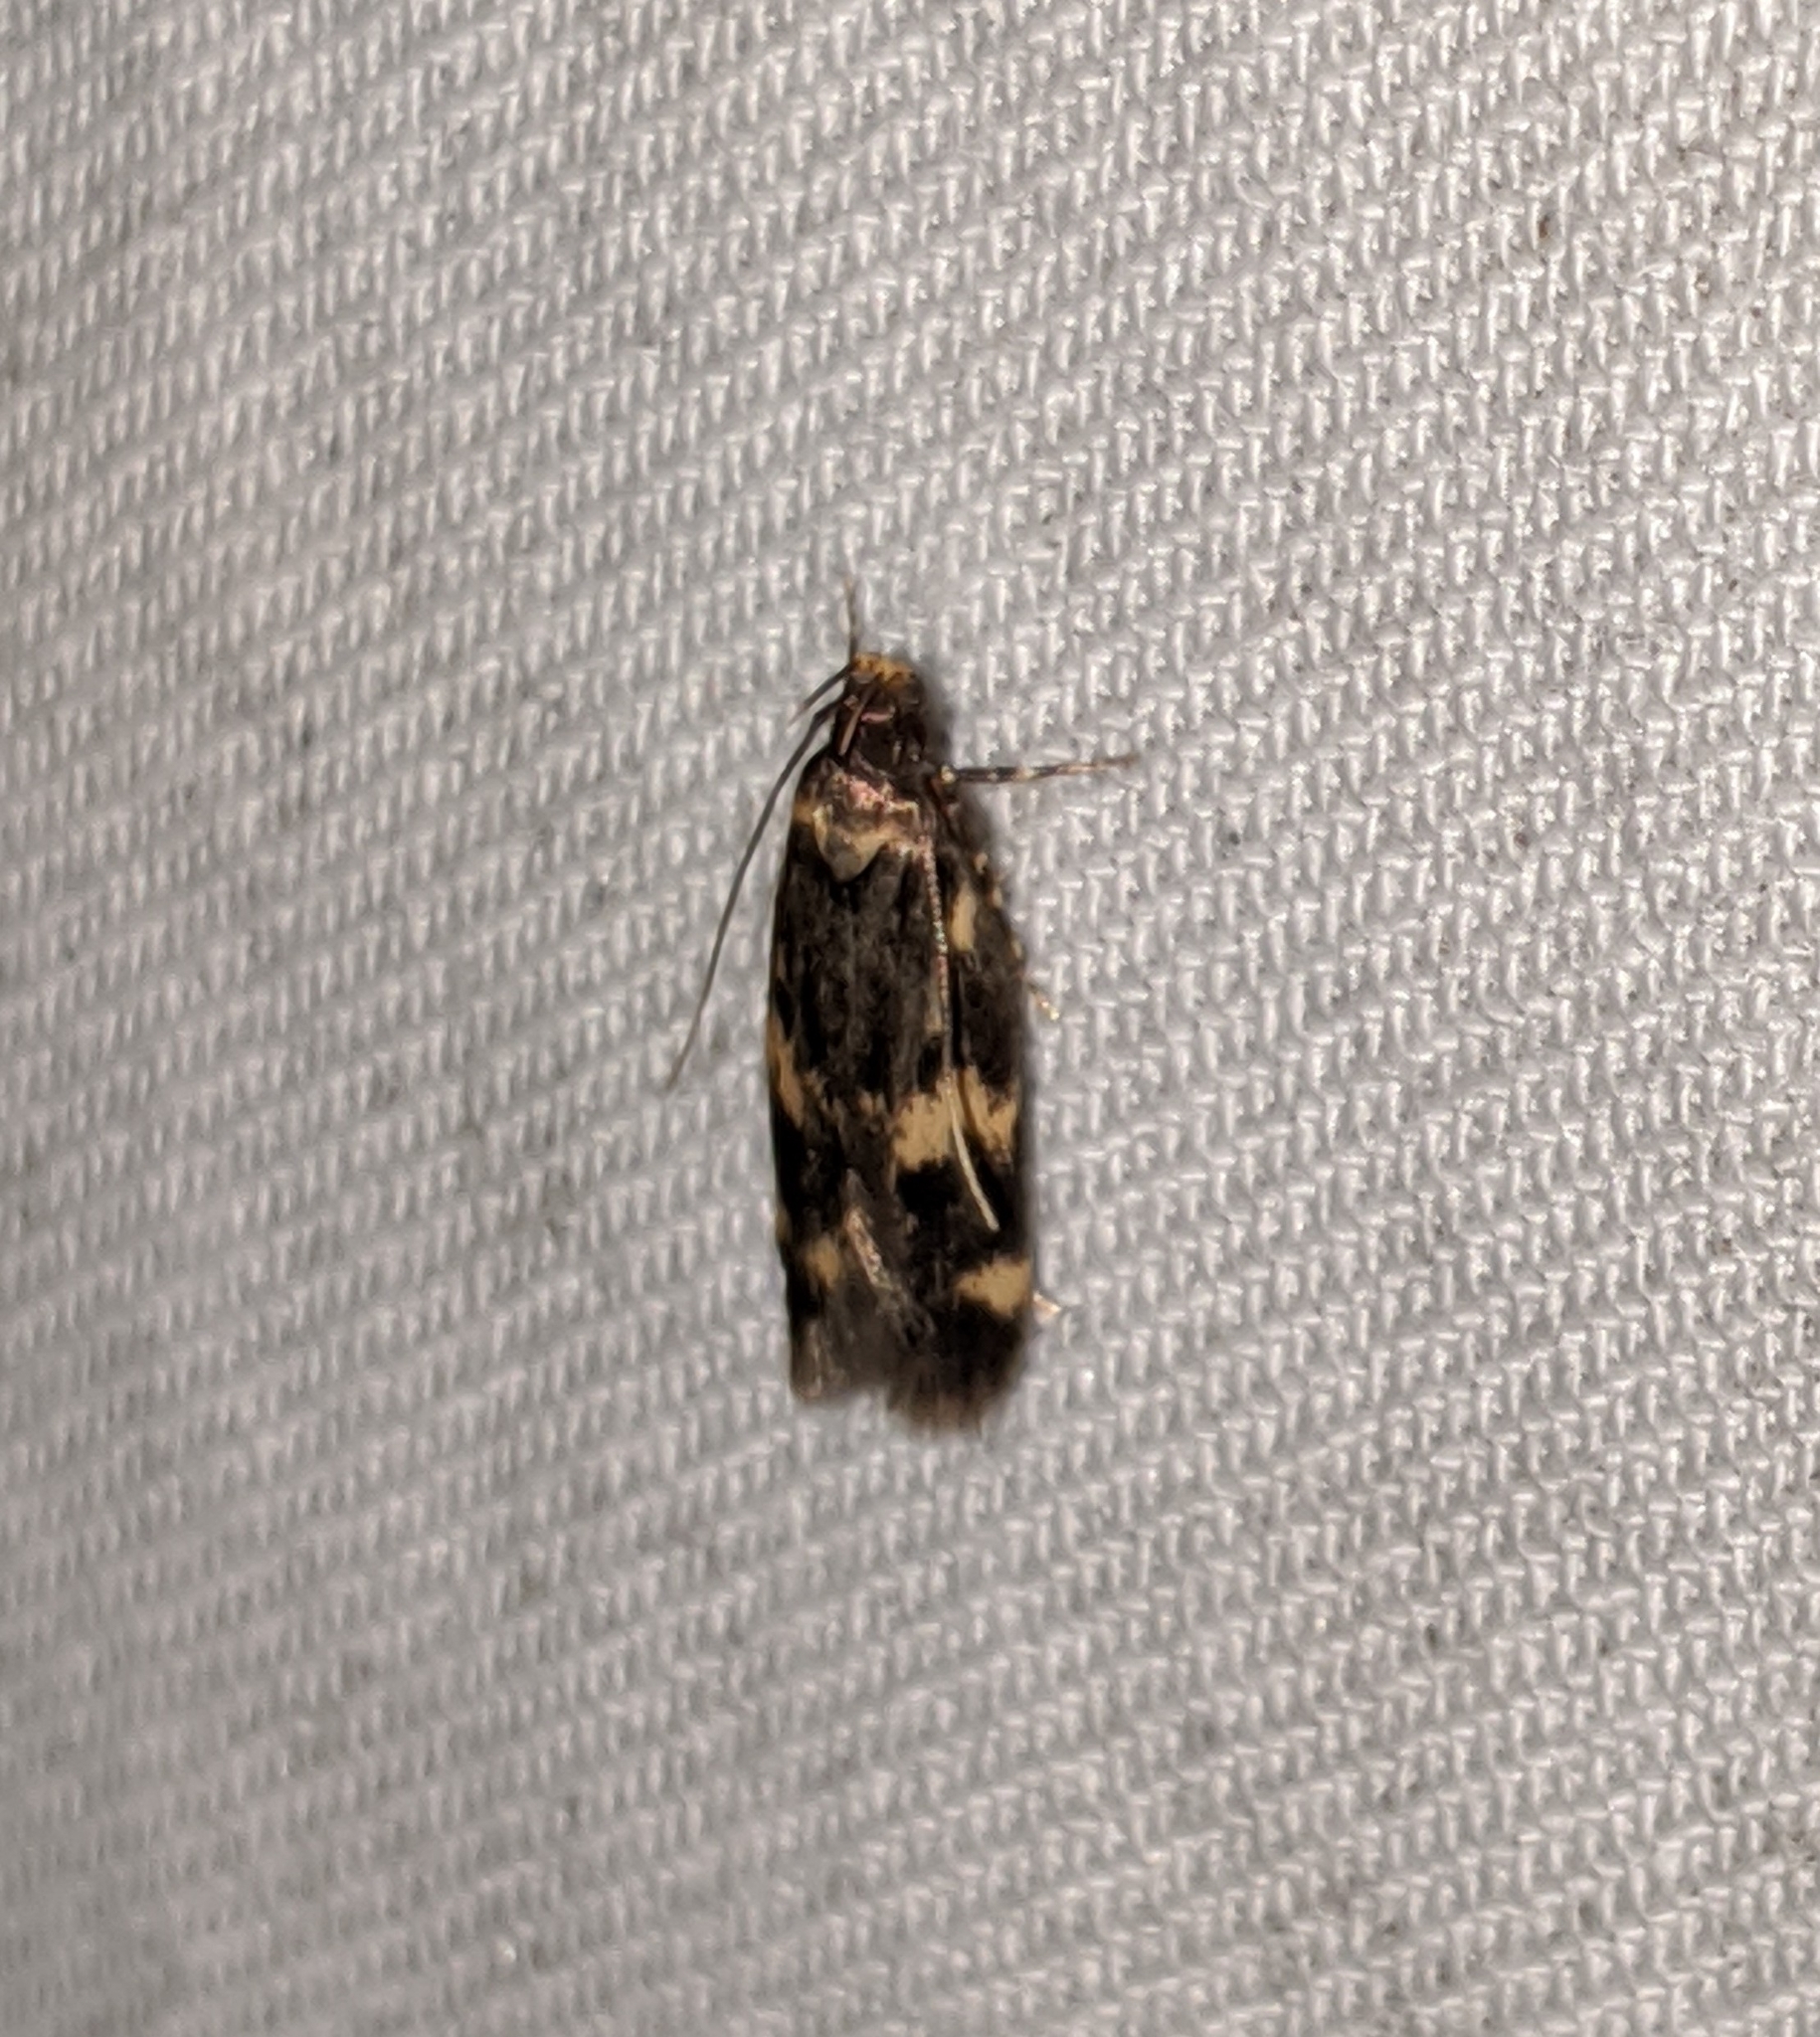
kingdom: Animalia
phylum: Arthropoda
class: Insecta
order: Lepidoptera
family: Autostichidae
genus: Oegoconia
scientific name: Oegoconia quadripuncta
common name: Four-spotted obscure
